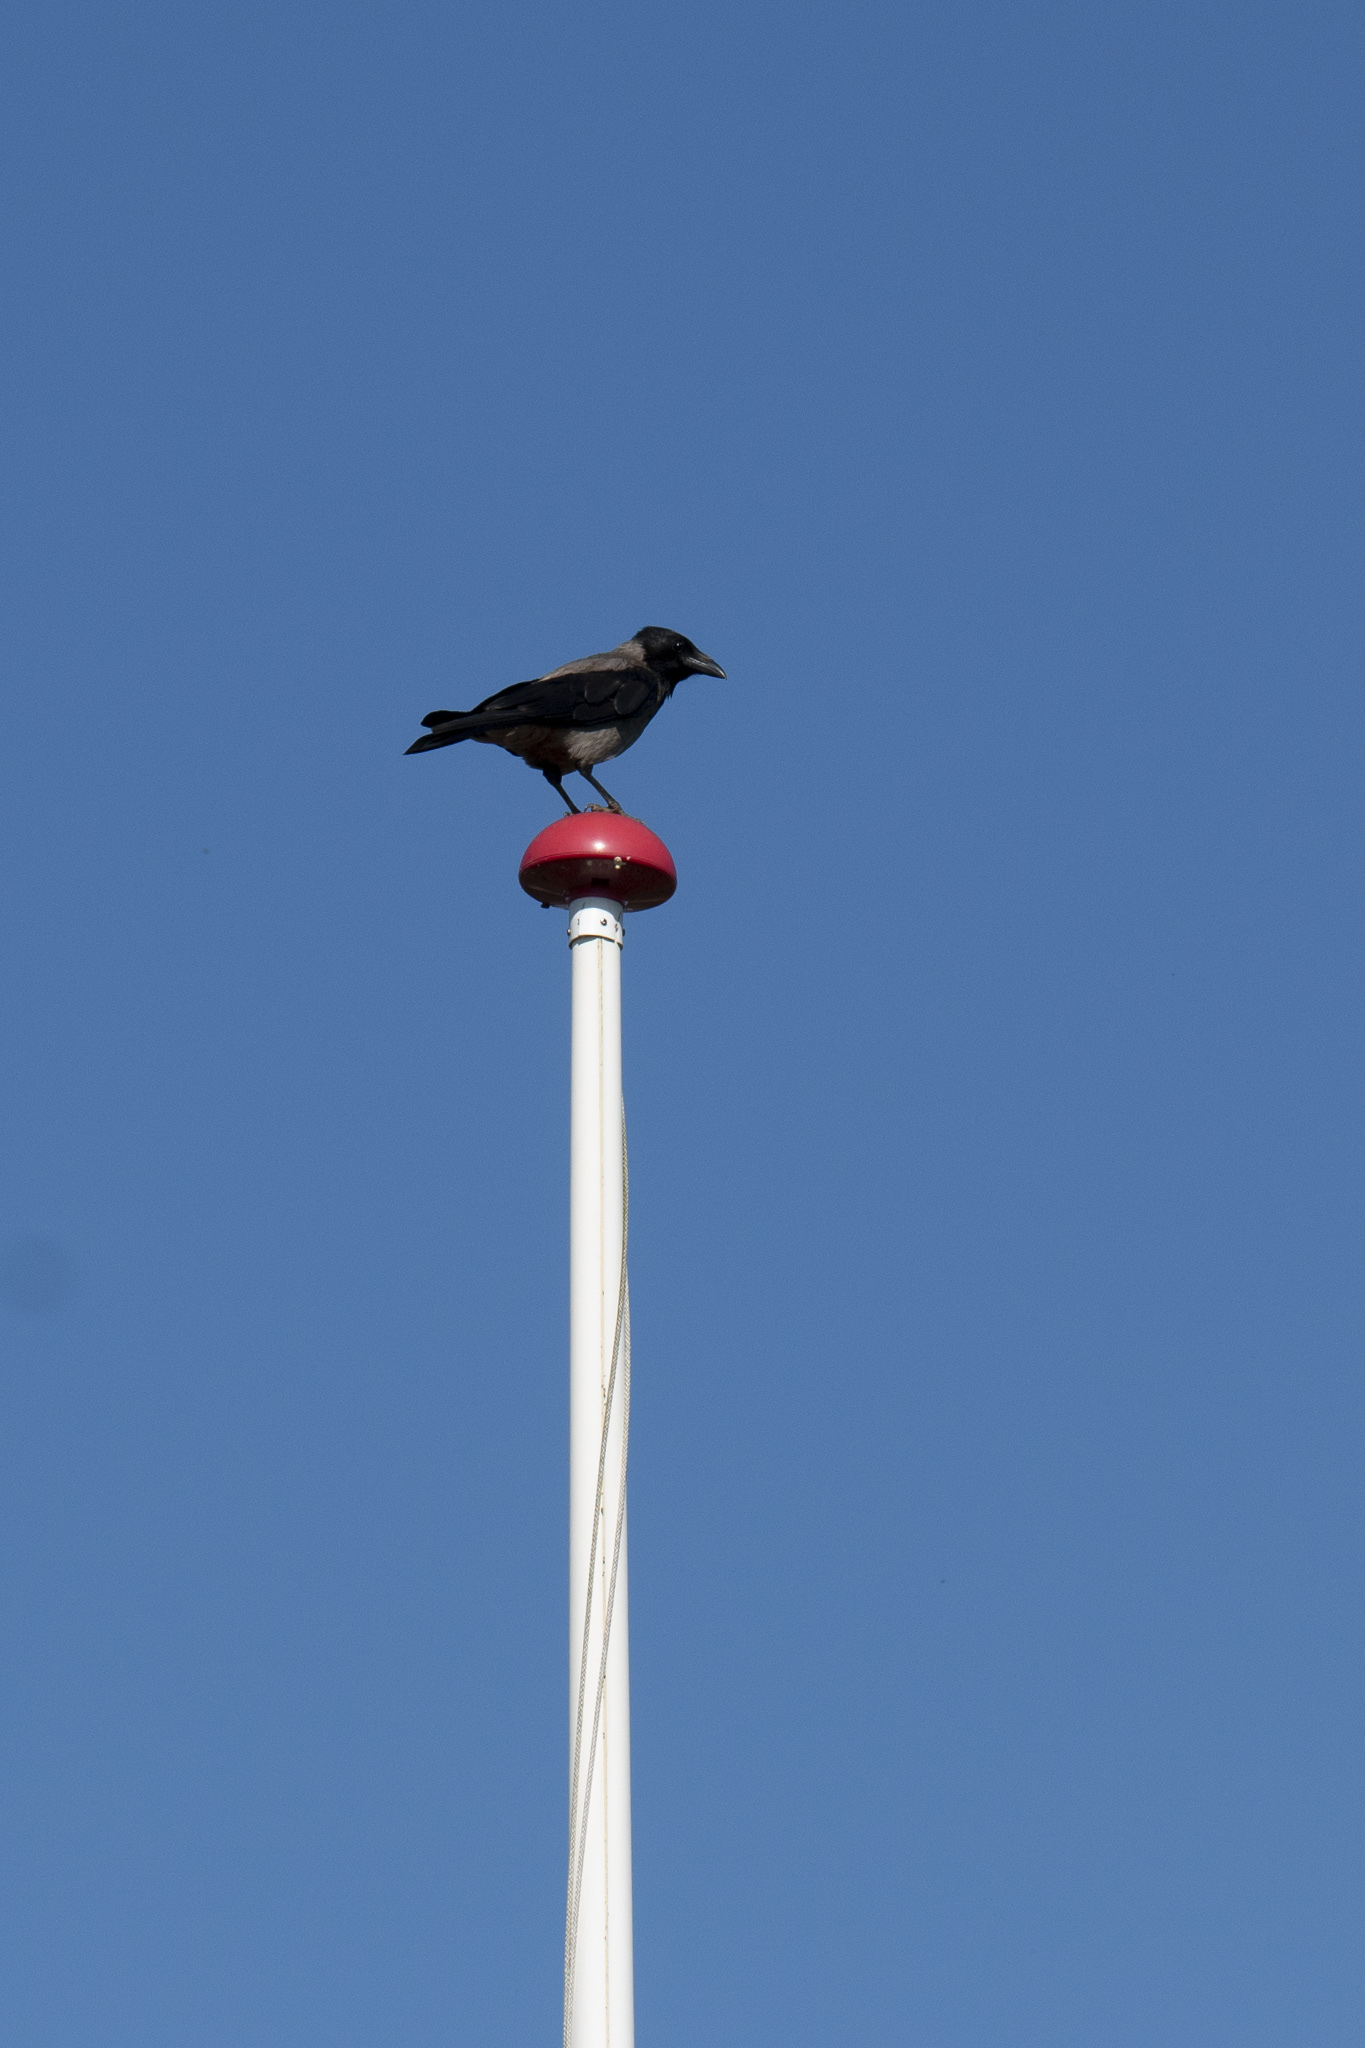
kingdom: Animalia
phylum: Chordata
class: Aves
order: Passeriformes
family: Corvidae
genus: Corvus
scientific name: Corvus cornix
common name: Hooded crow
